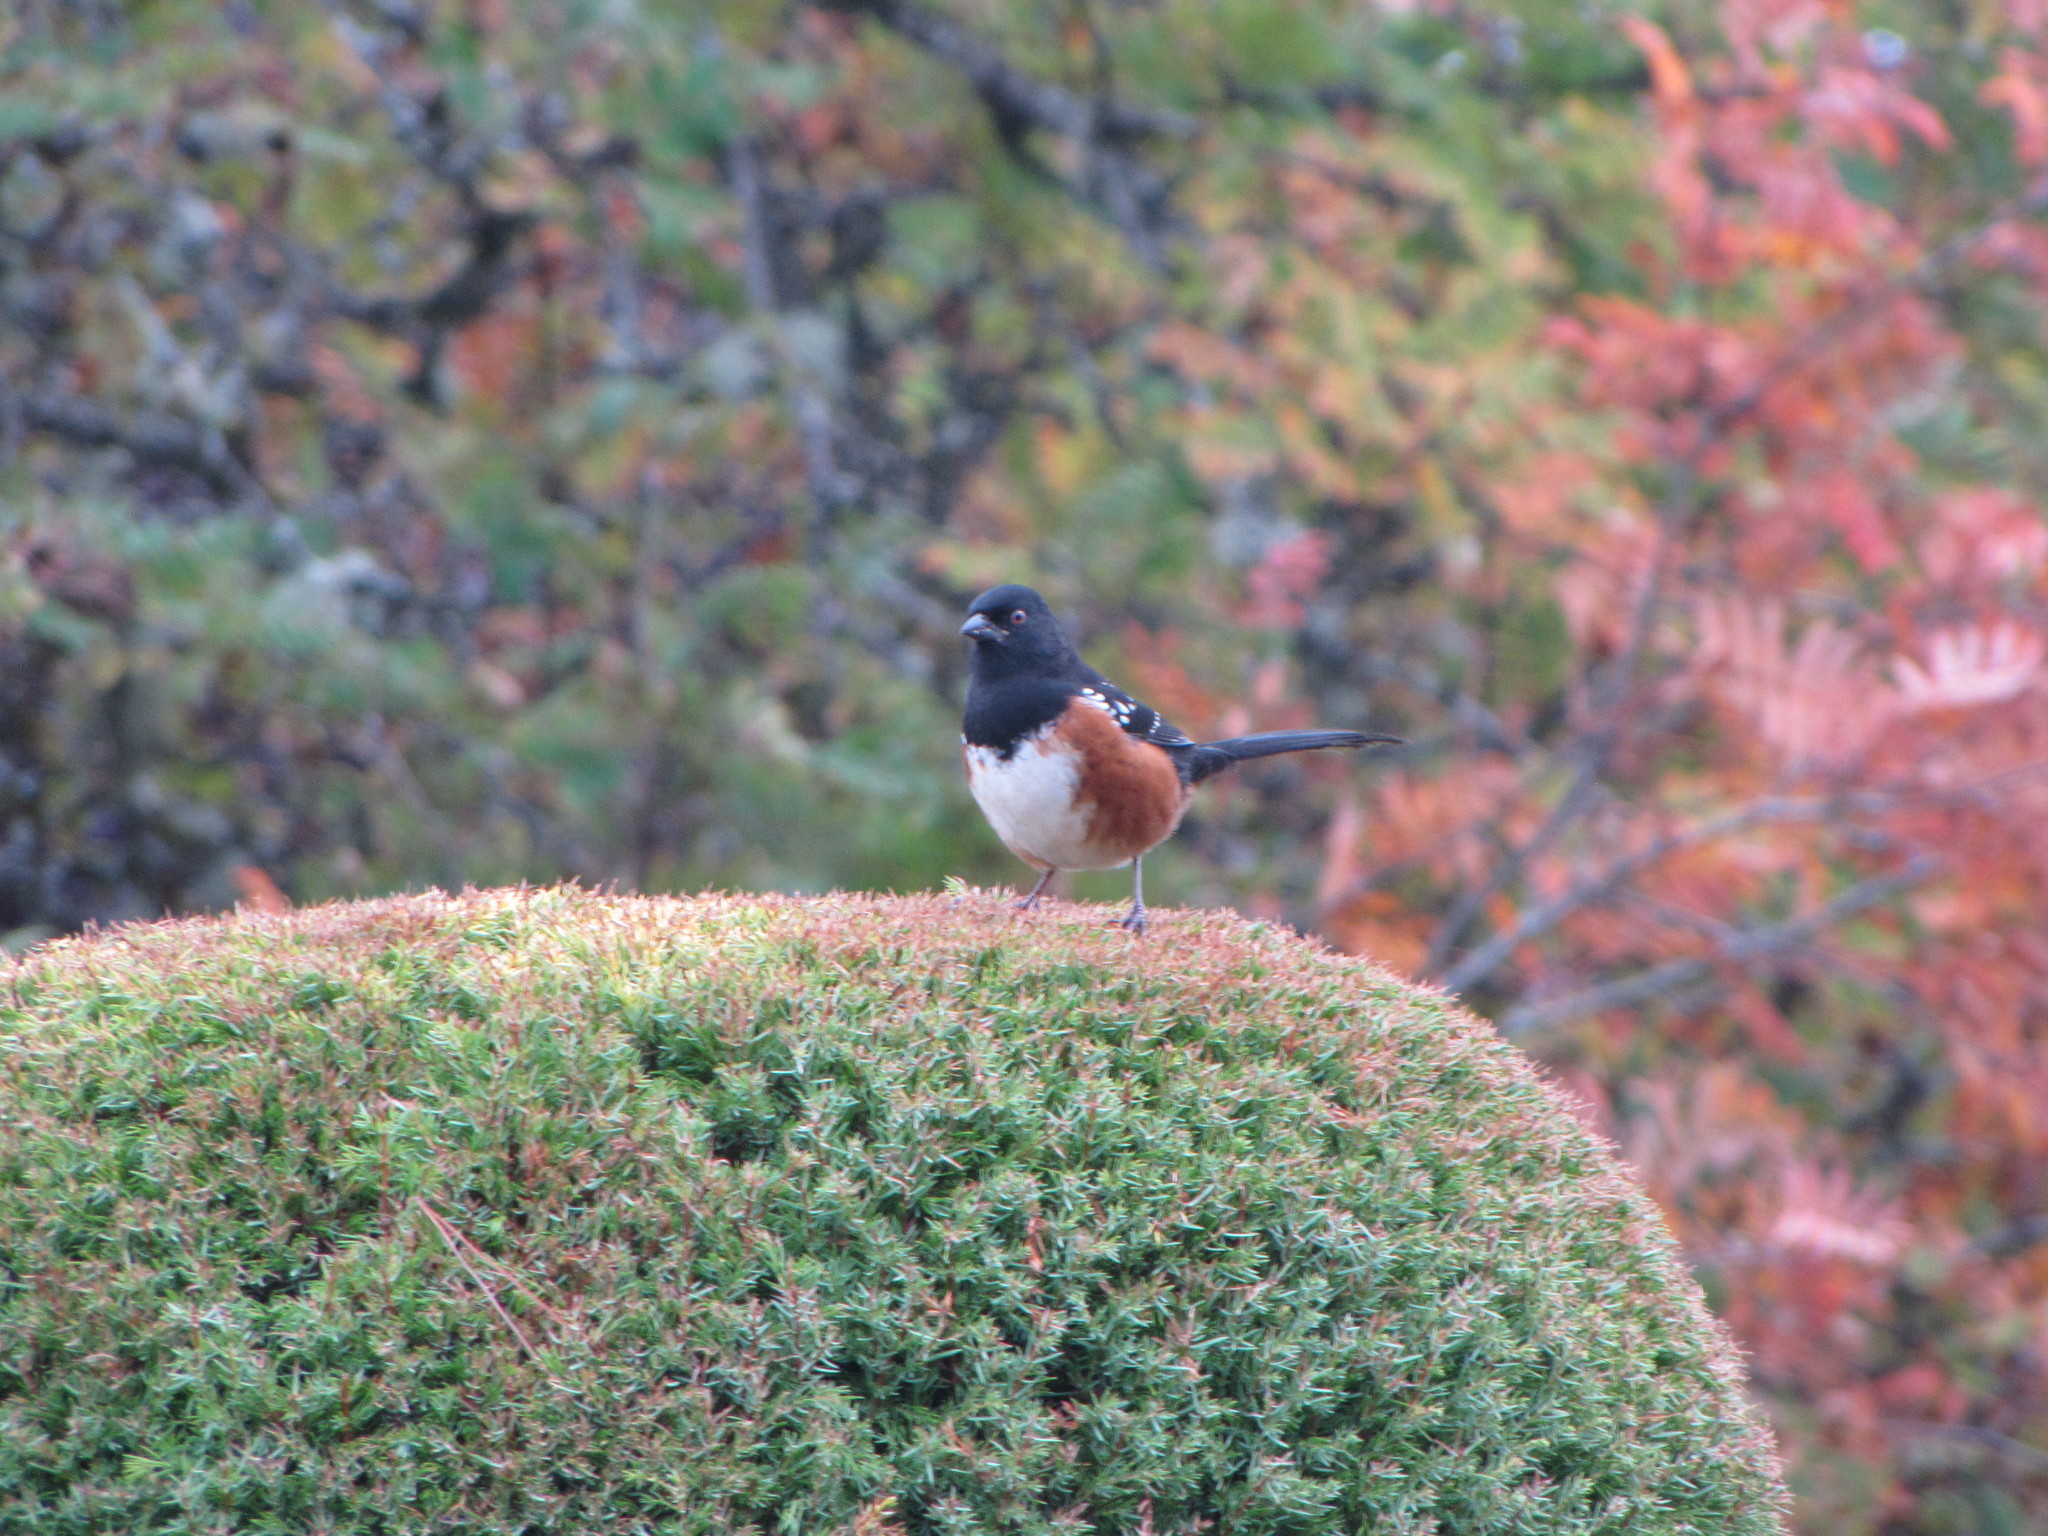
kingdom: Animalia
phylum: Chordata
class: Aves
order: Passeriformes
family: Passerellidae
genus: Pipilo
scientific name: Pipilo maculatus
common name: Spotted towhee
